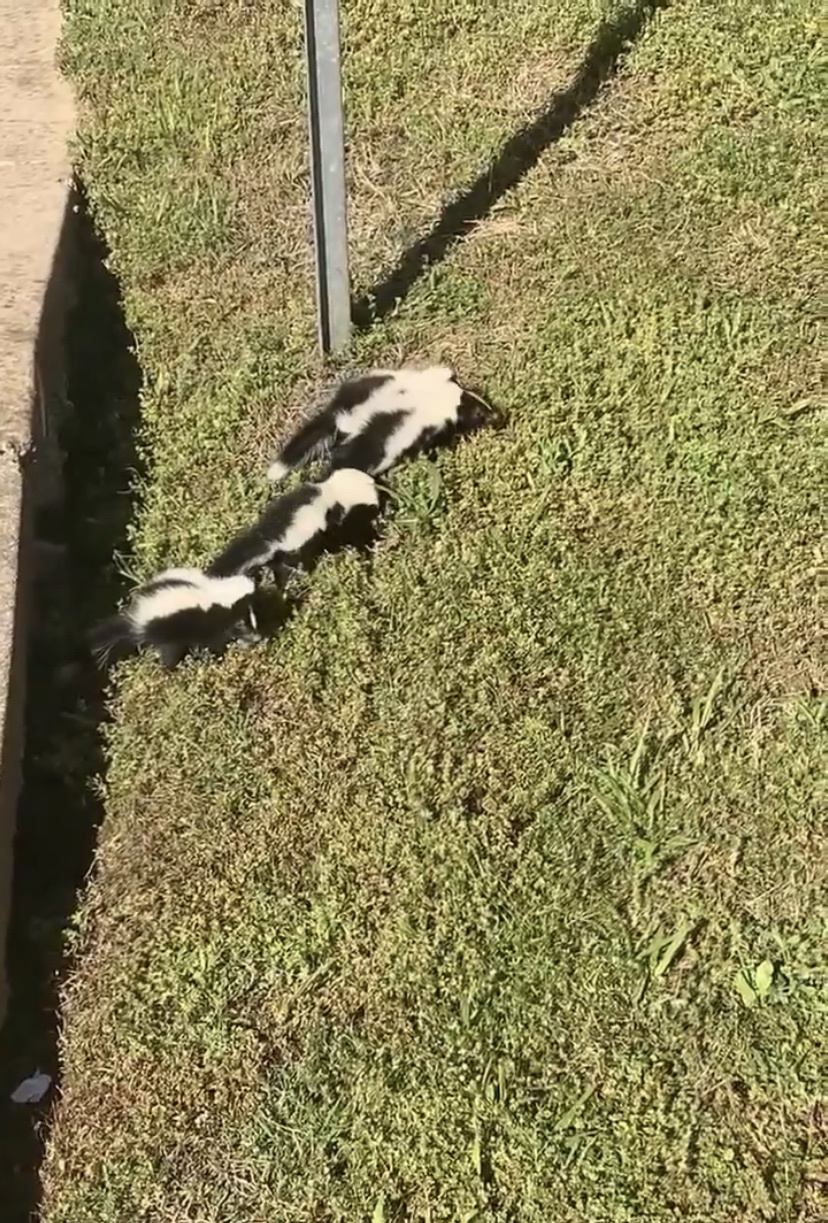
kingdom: Animalia
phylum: Chordata
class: Mammalia
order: Carnivora
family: Mephitidae
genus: Mephitis
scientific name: Mephitis mephitis
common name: Striped skunk
